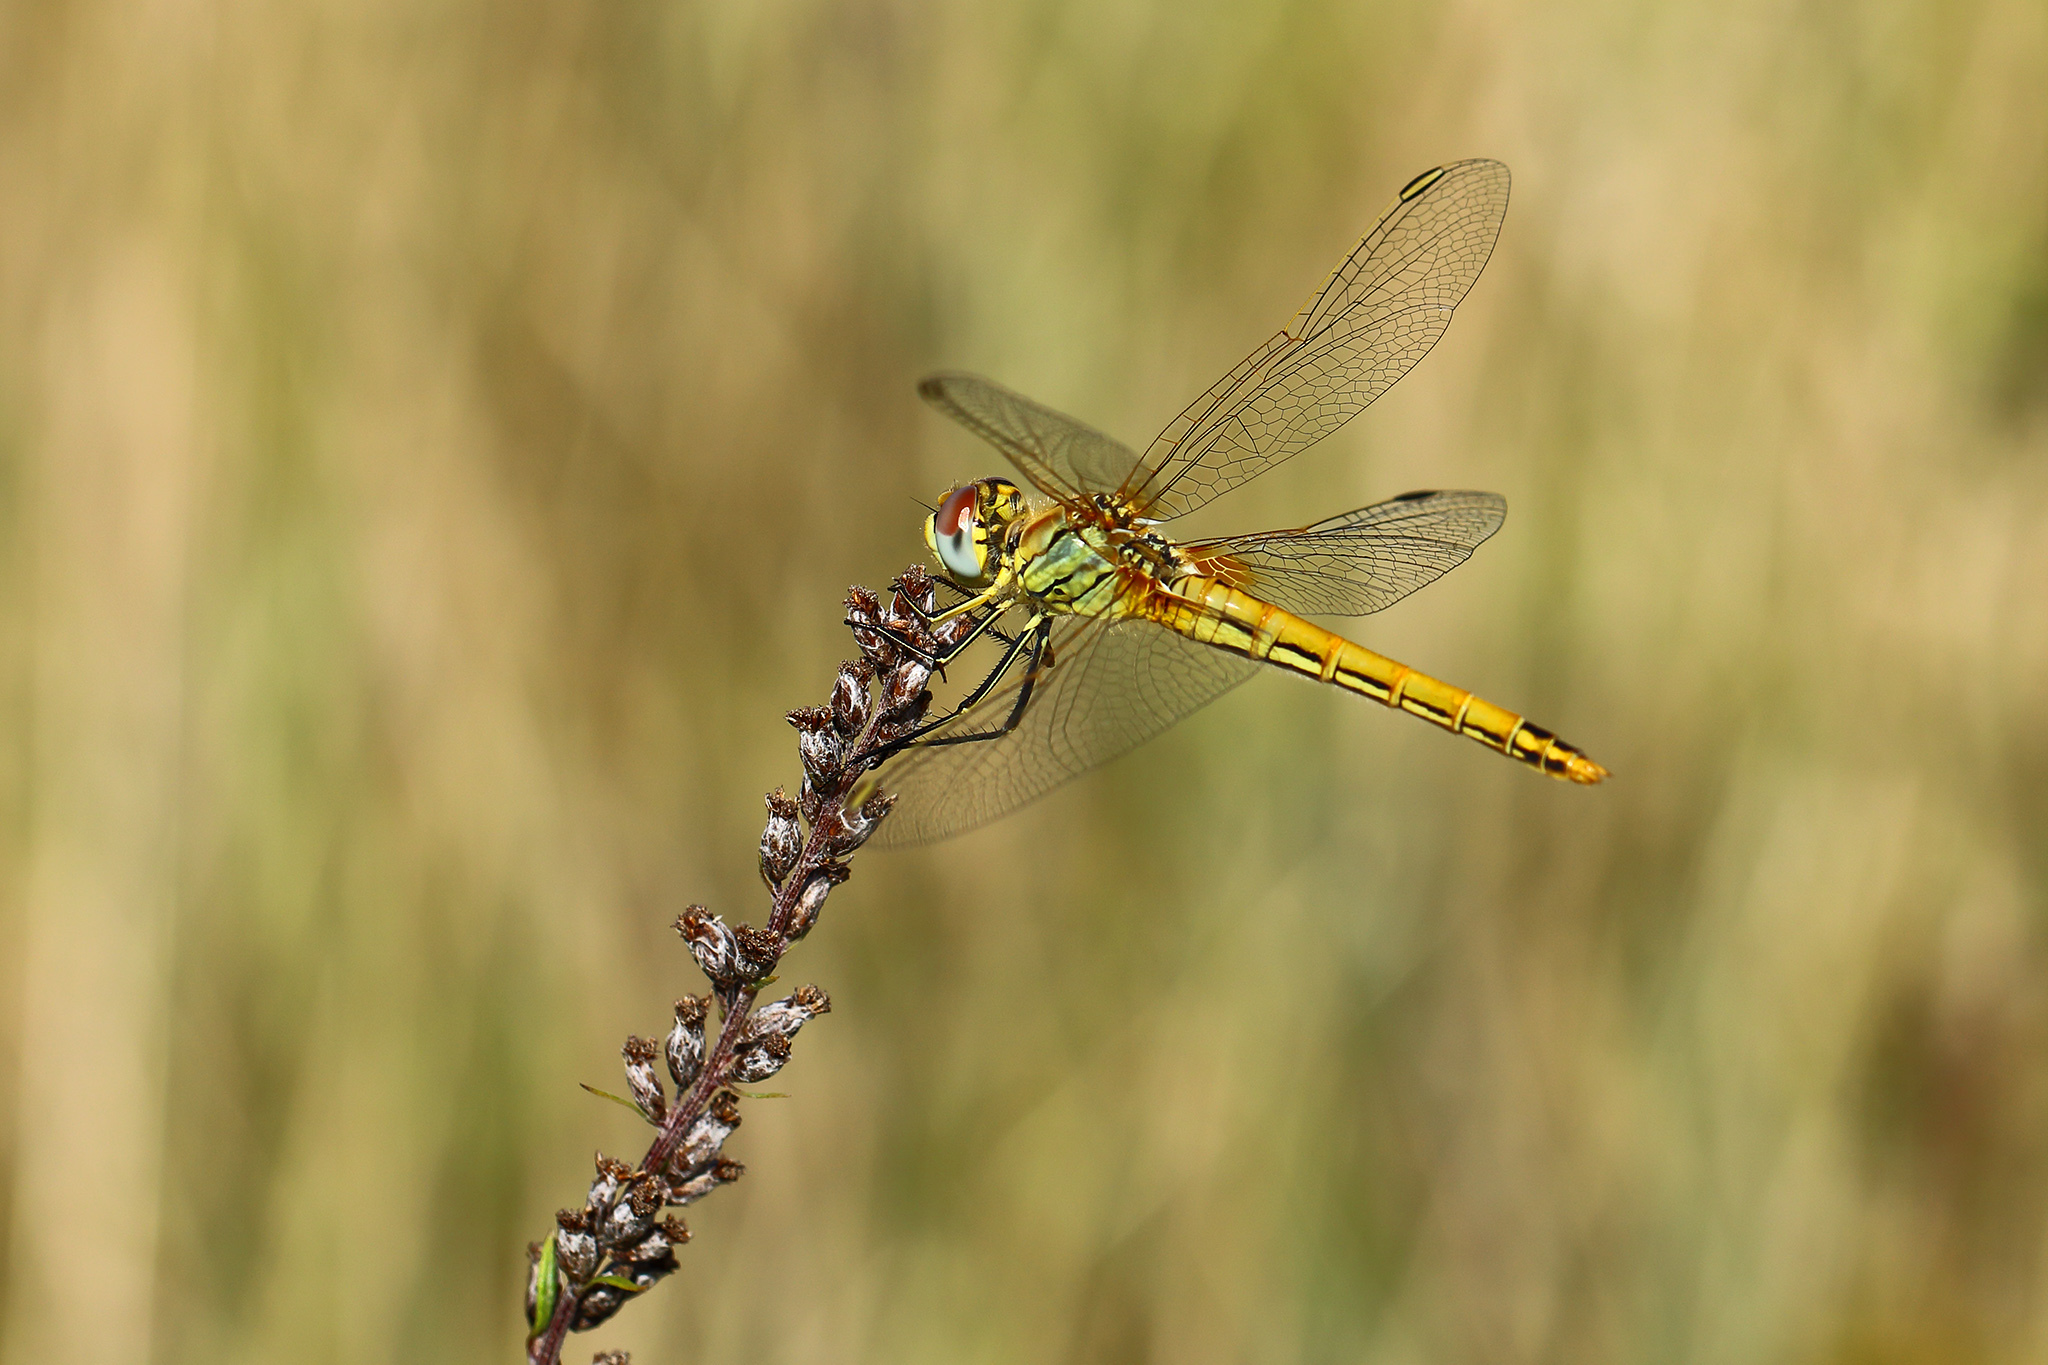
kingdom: Animalia
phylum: Arthropoda
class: Insecta
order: Odonata
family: Libellulidae
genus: Sympetrum
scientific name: Sympetrum fonscolombii
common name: Red-veined darter
